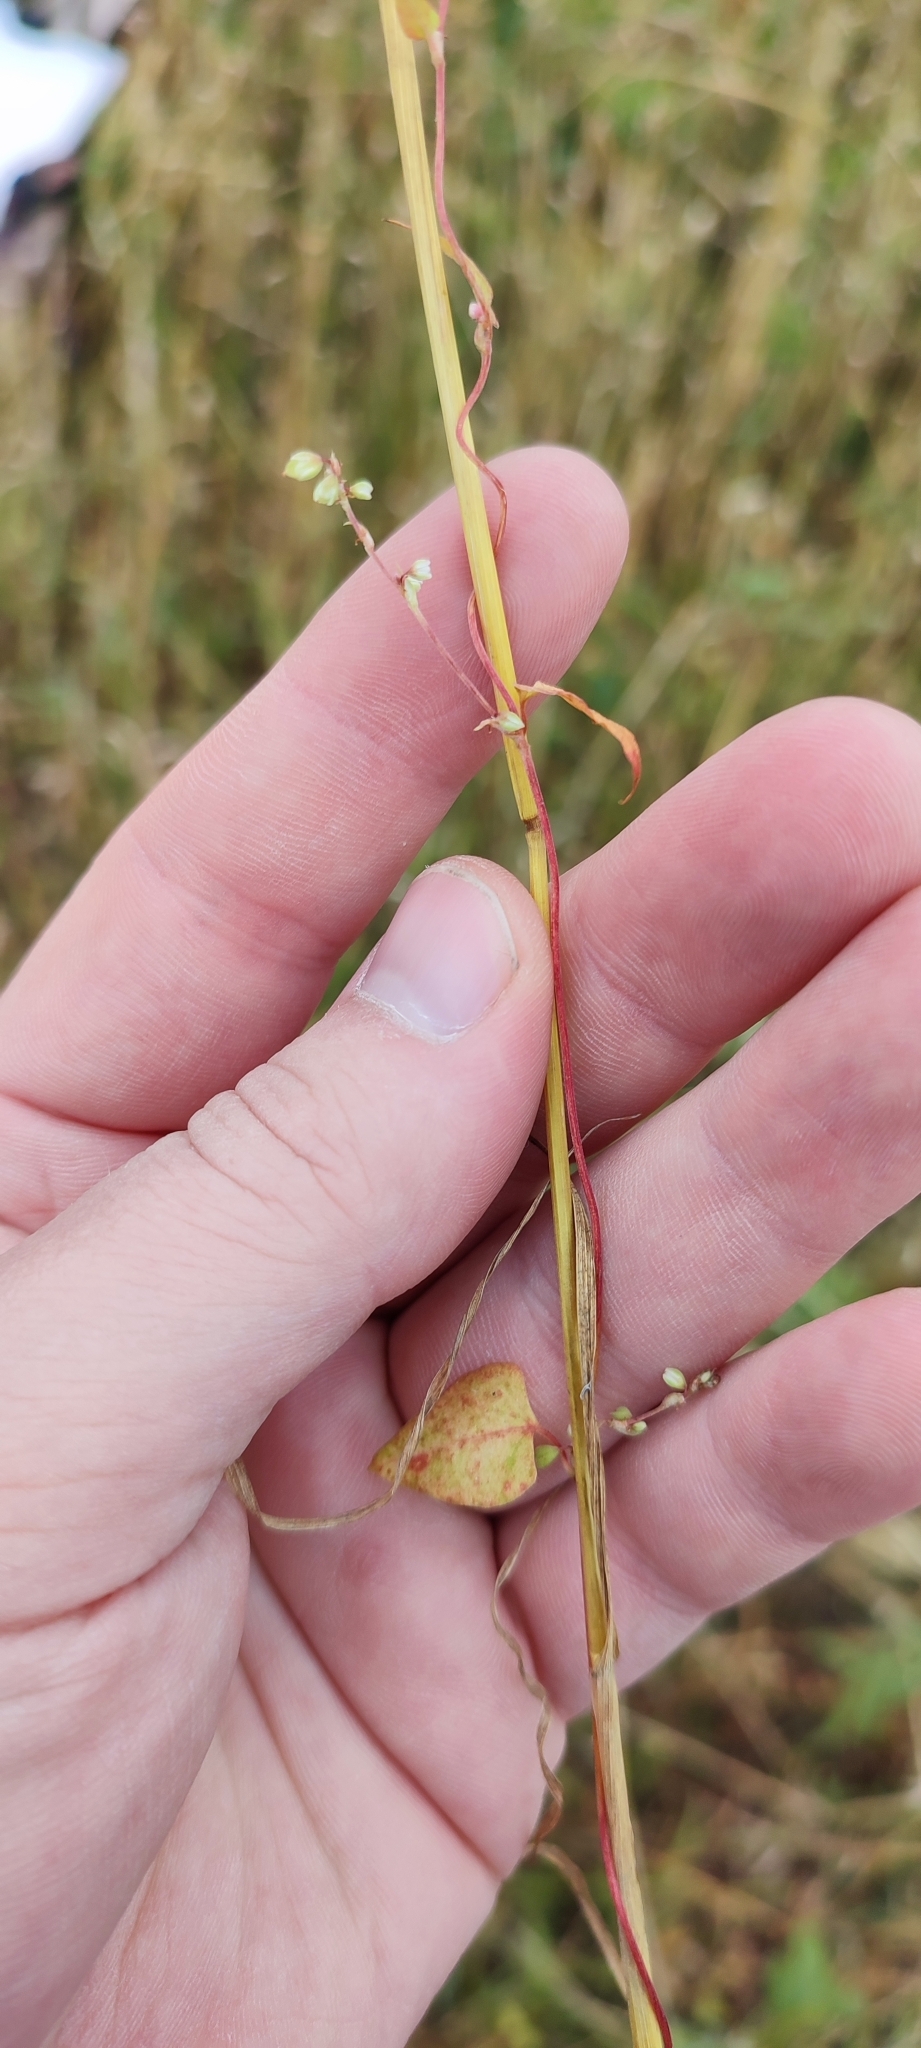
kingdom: Plantae
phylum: Tracheophyta
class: Magnoliopsida
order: Caryophyllales
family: Polygonaceae
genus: Fallopia
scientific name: Fallopia convolvulus
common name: Black bindweed
